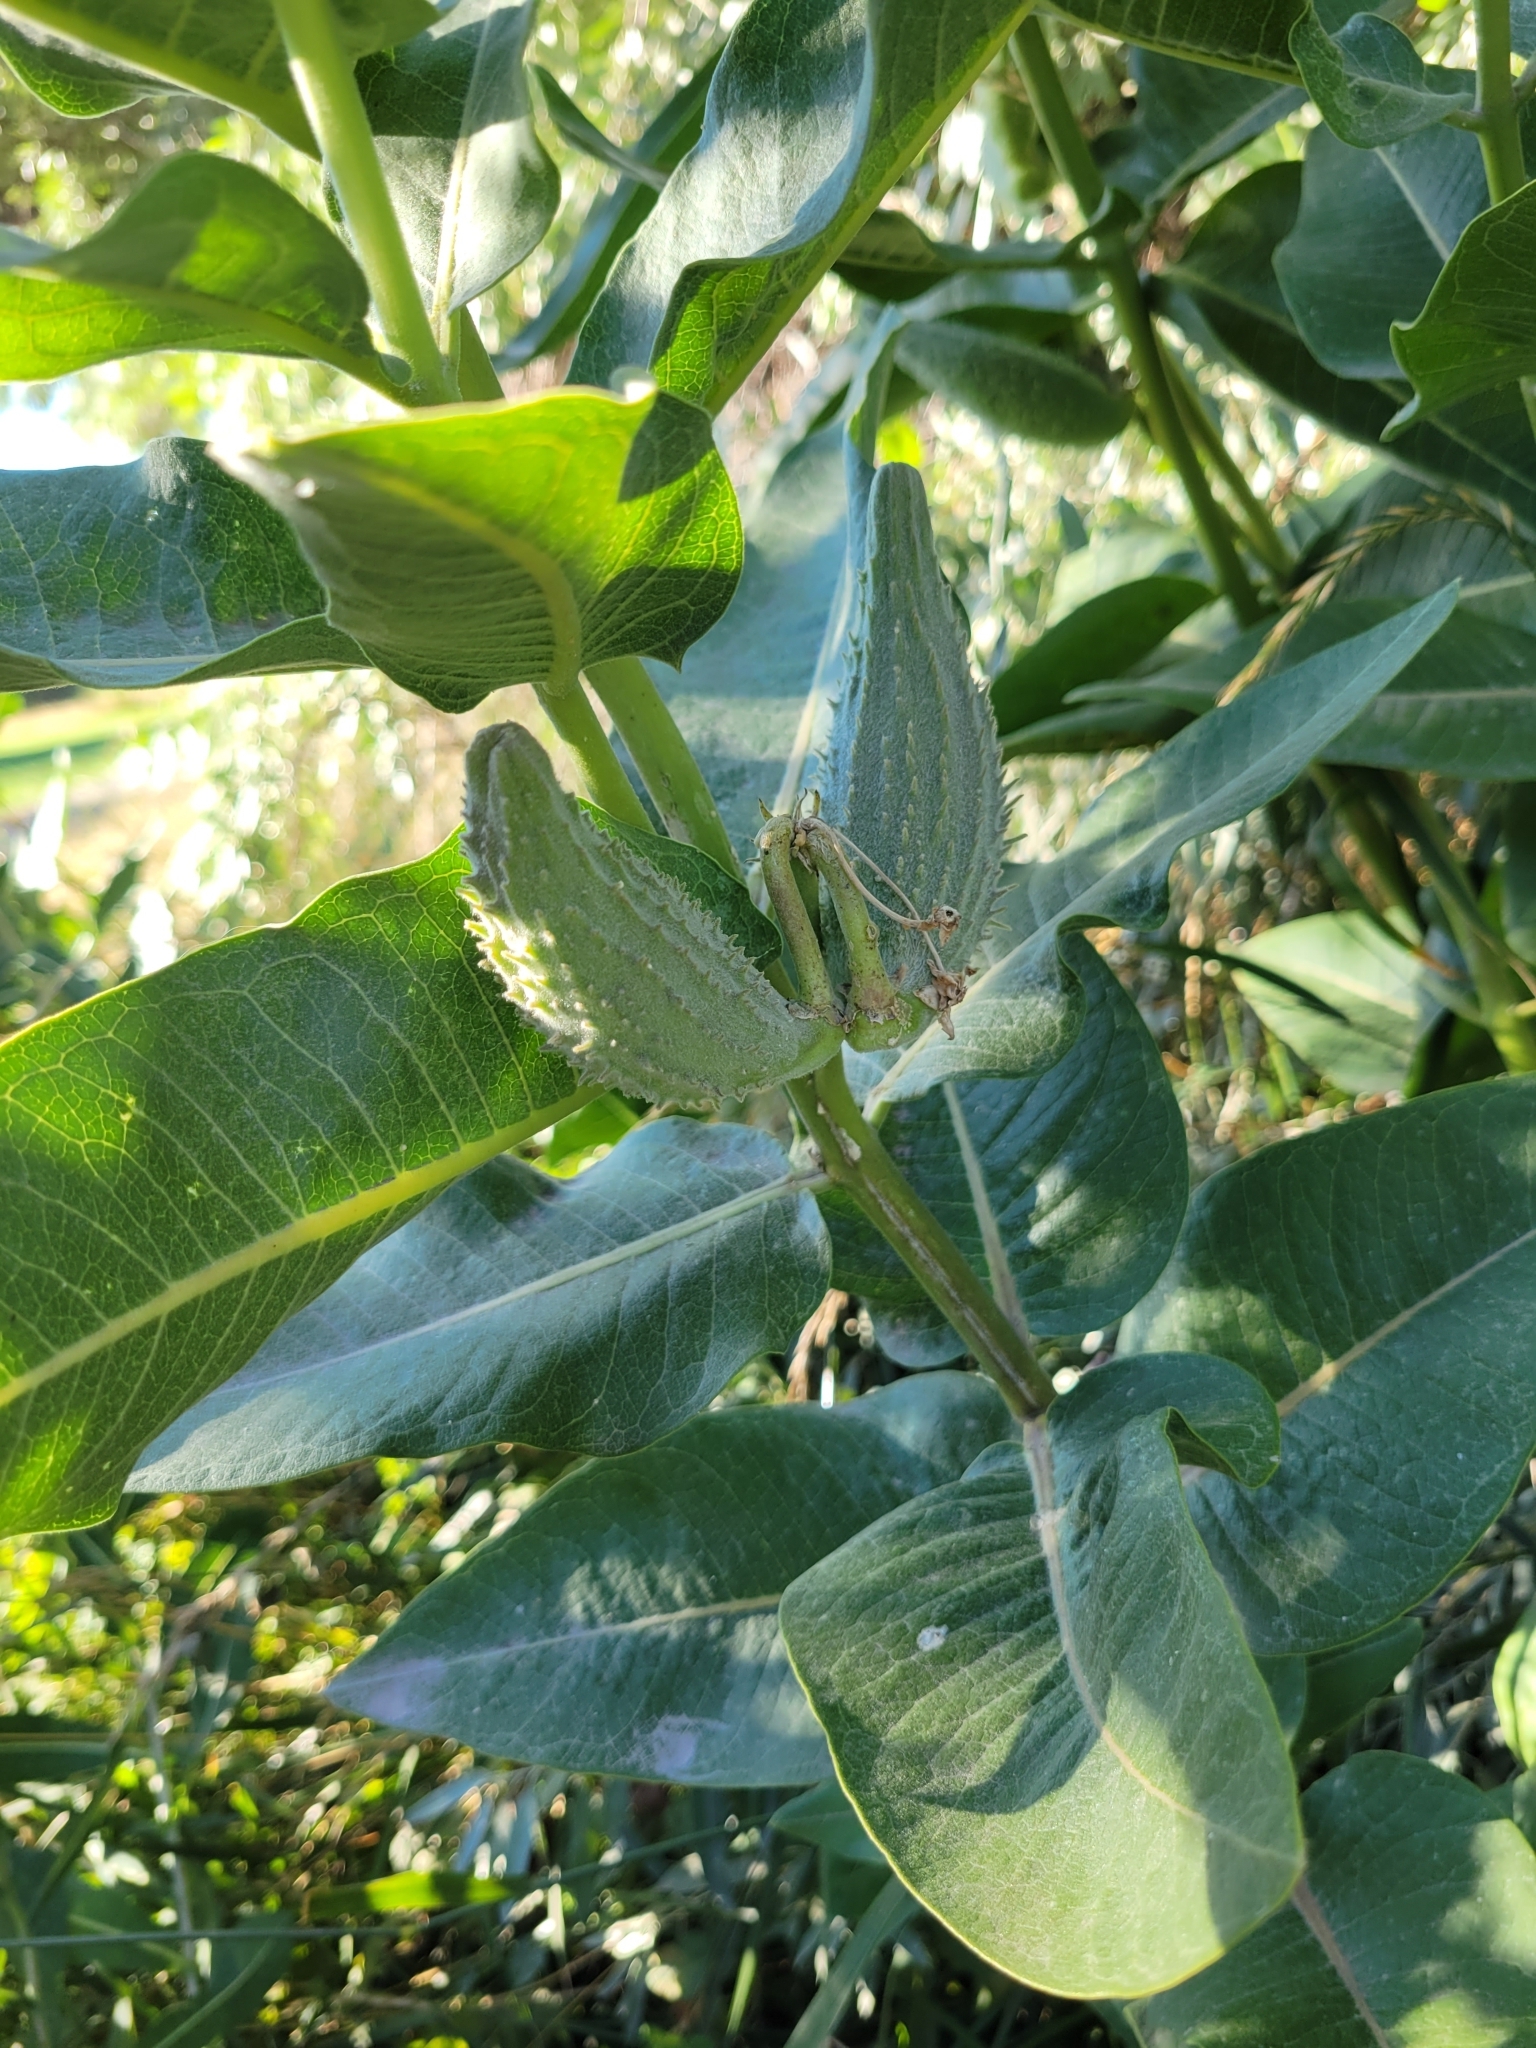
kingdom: Plantae
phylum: Tracheophyta
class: Magnoliopsida
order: Gentianales
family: Apocynaceae
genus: Asclepias
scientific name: Asclepias speciosa
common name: Showy milkweed
